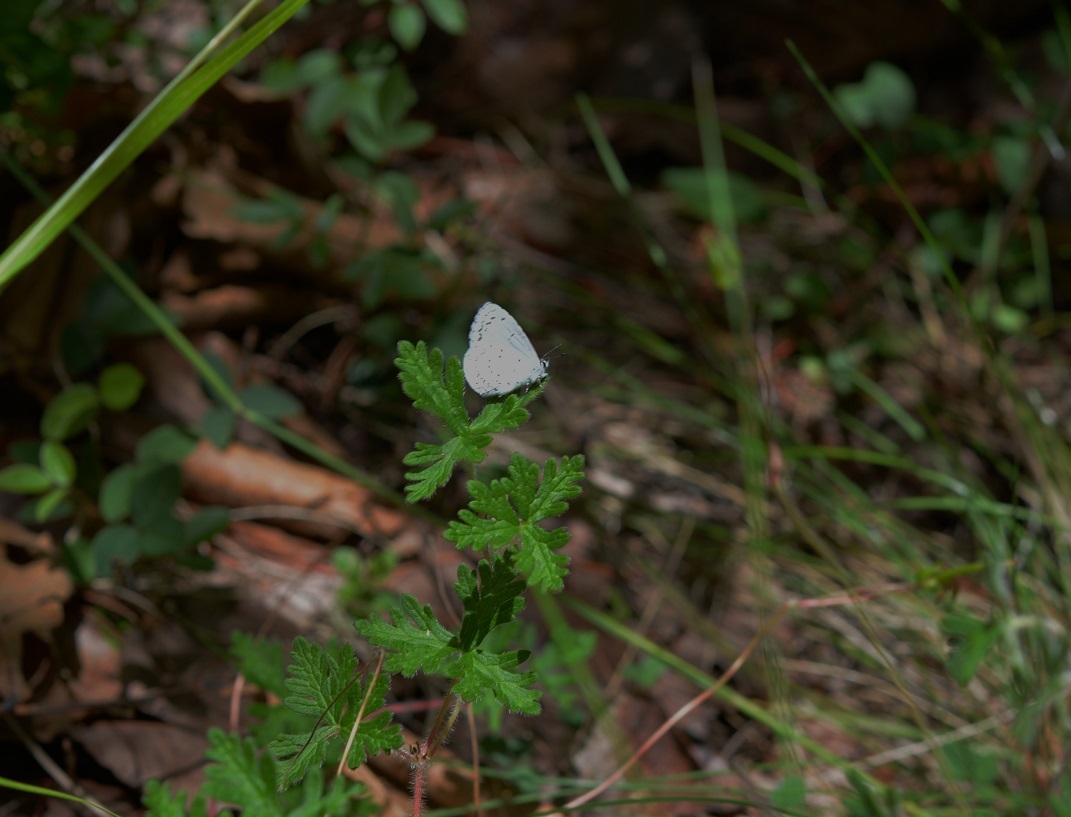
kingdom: Animalia
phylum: Arthropoda
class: Insecta
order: Lepidoptera
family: Lycaenidae
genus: Celastrina
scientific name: Celastrina ladon
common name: Spring azure
